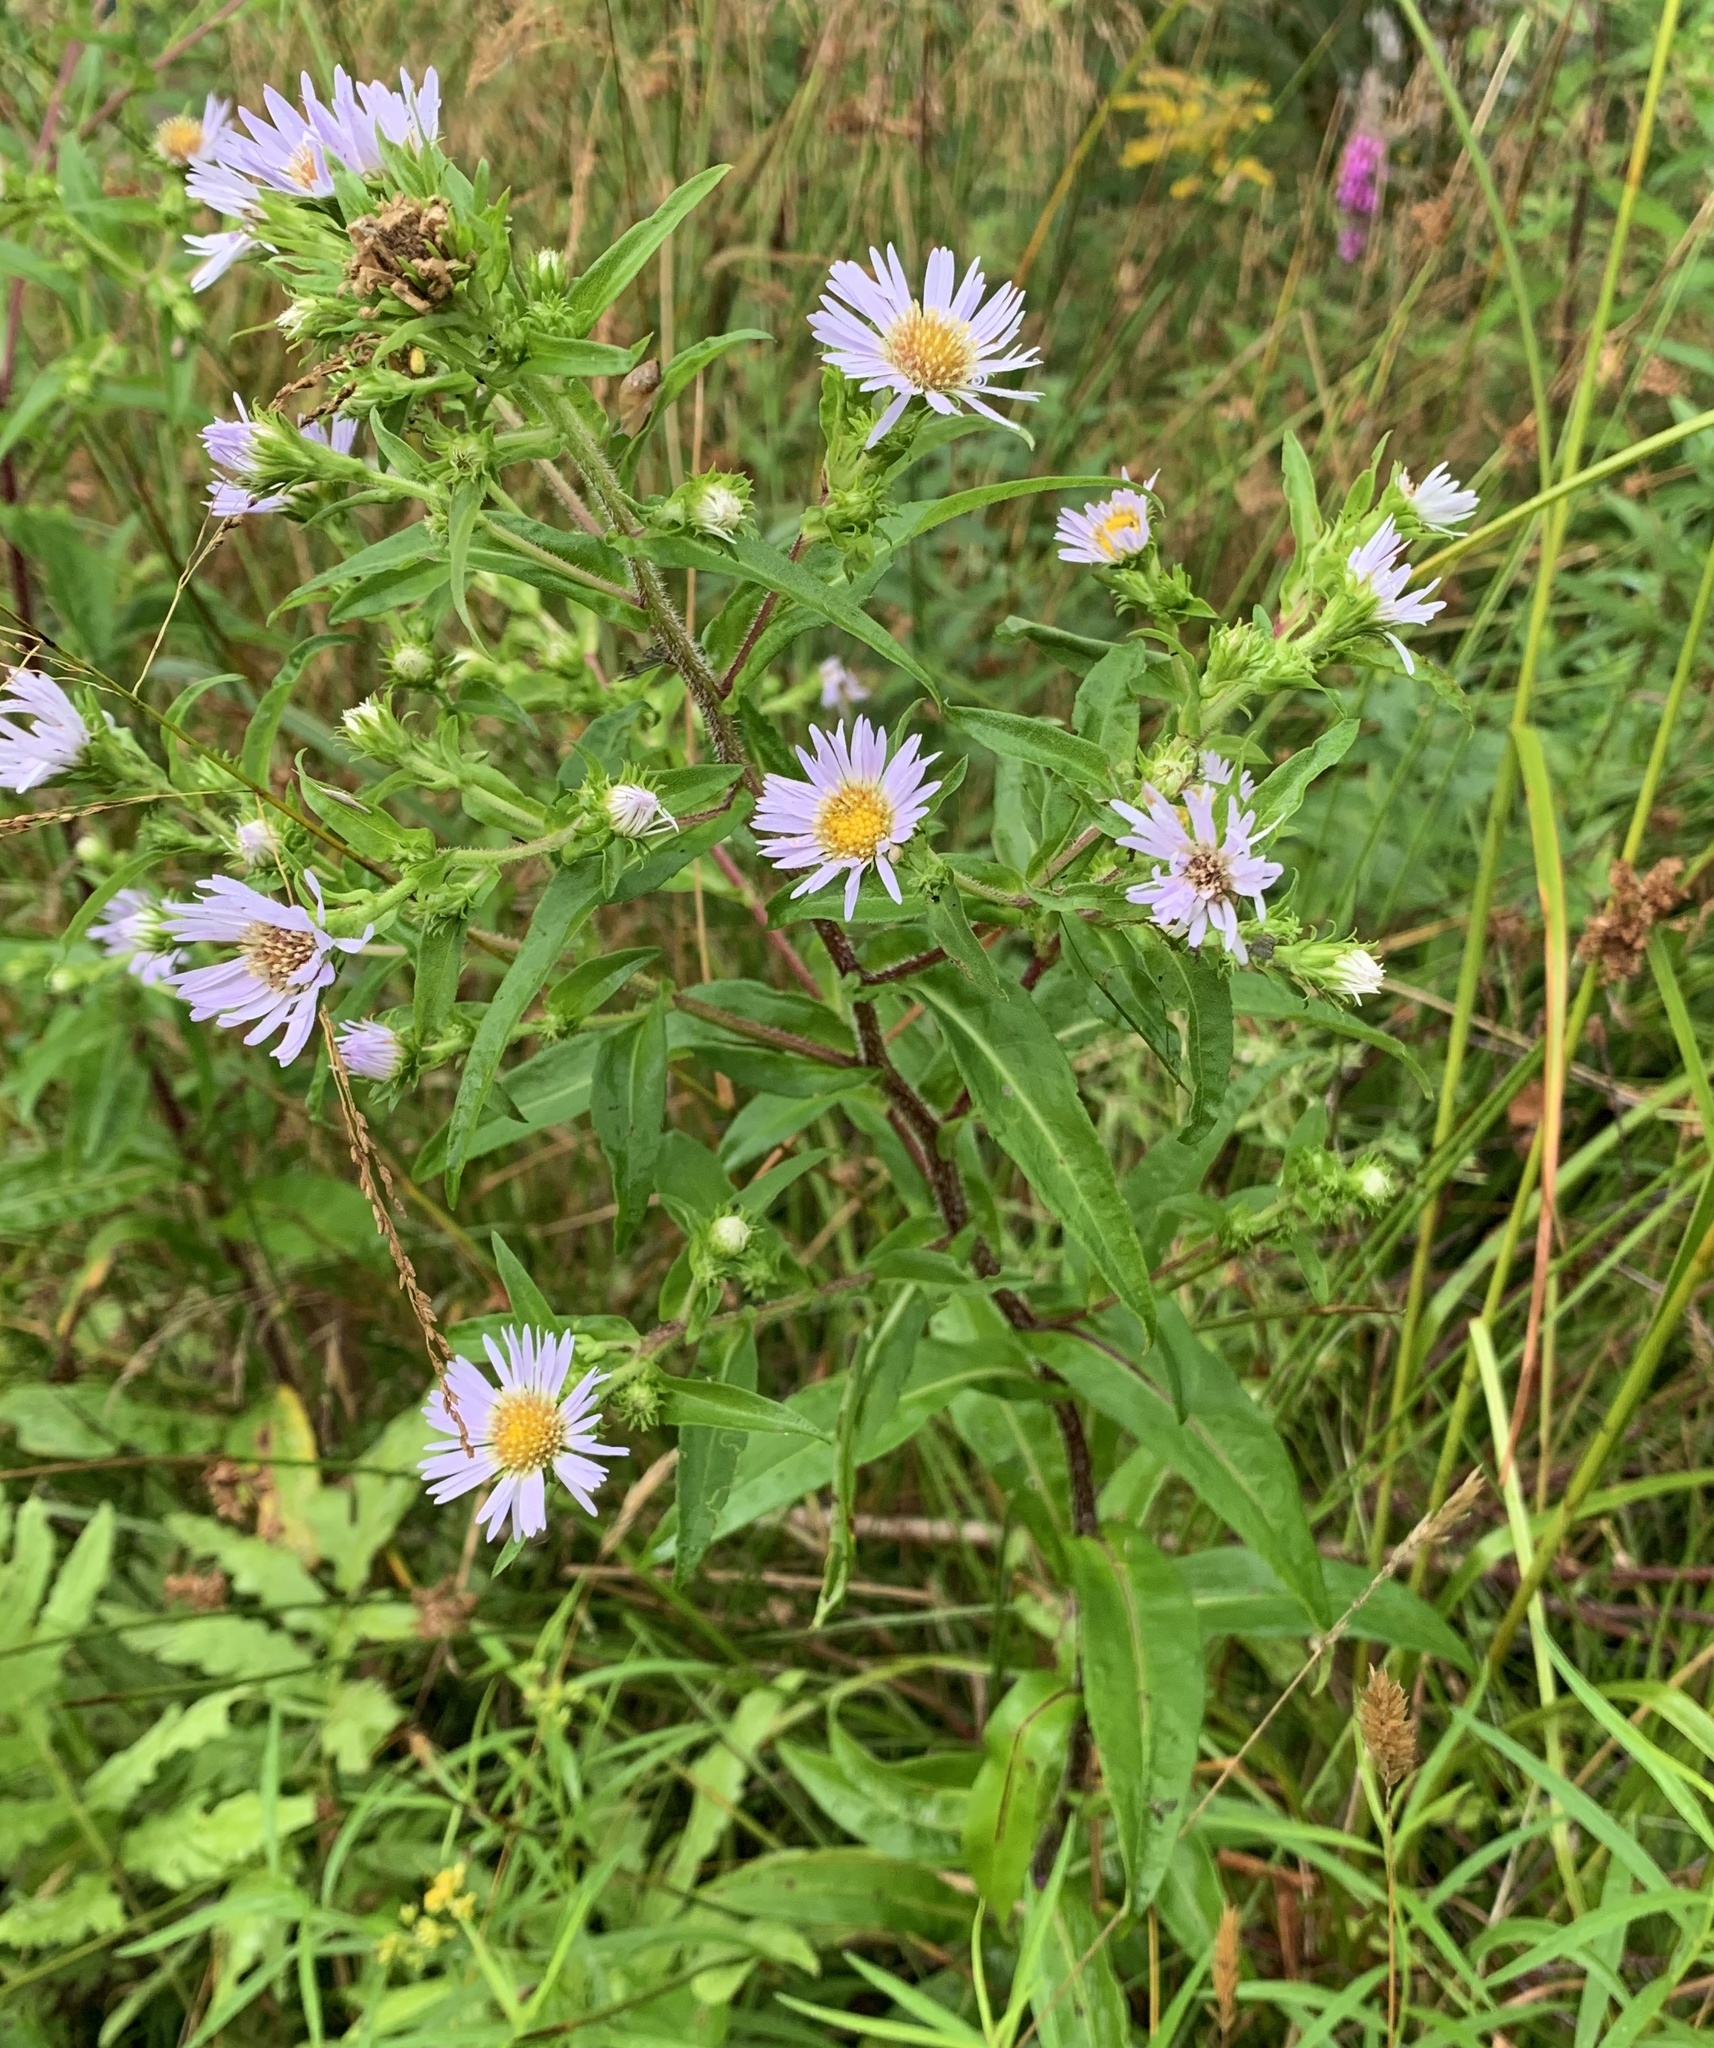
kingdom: Plantae
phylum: Tracheophyta
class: Magnoliopsida
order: Asterales
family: Asteraceae
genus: Symphyotrichum
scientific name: Symphyotrichum puniceum
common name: Bog aster
